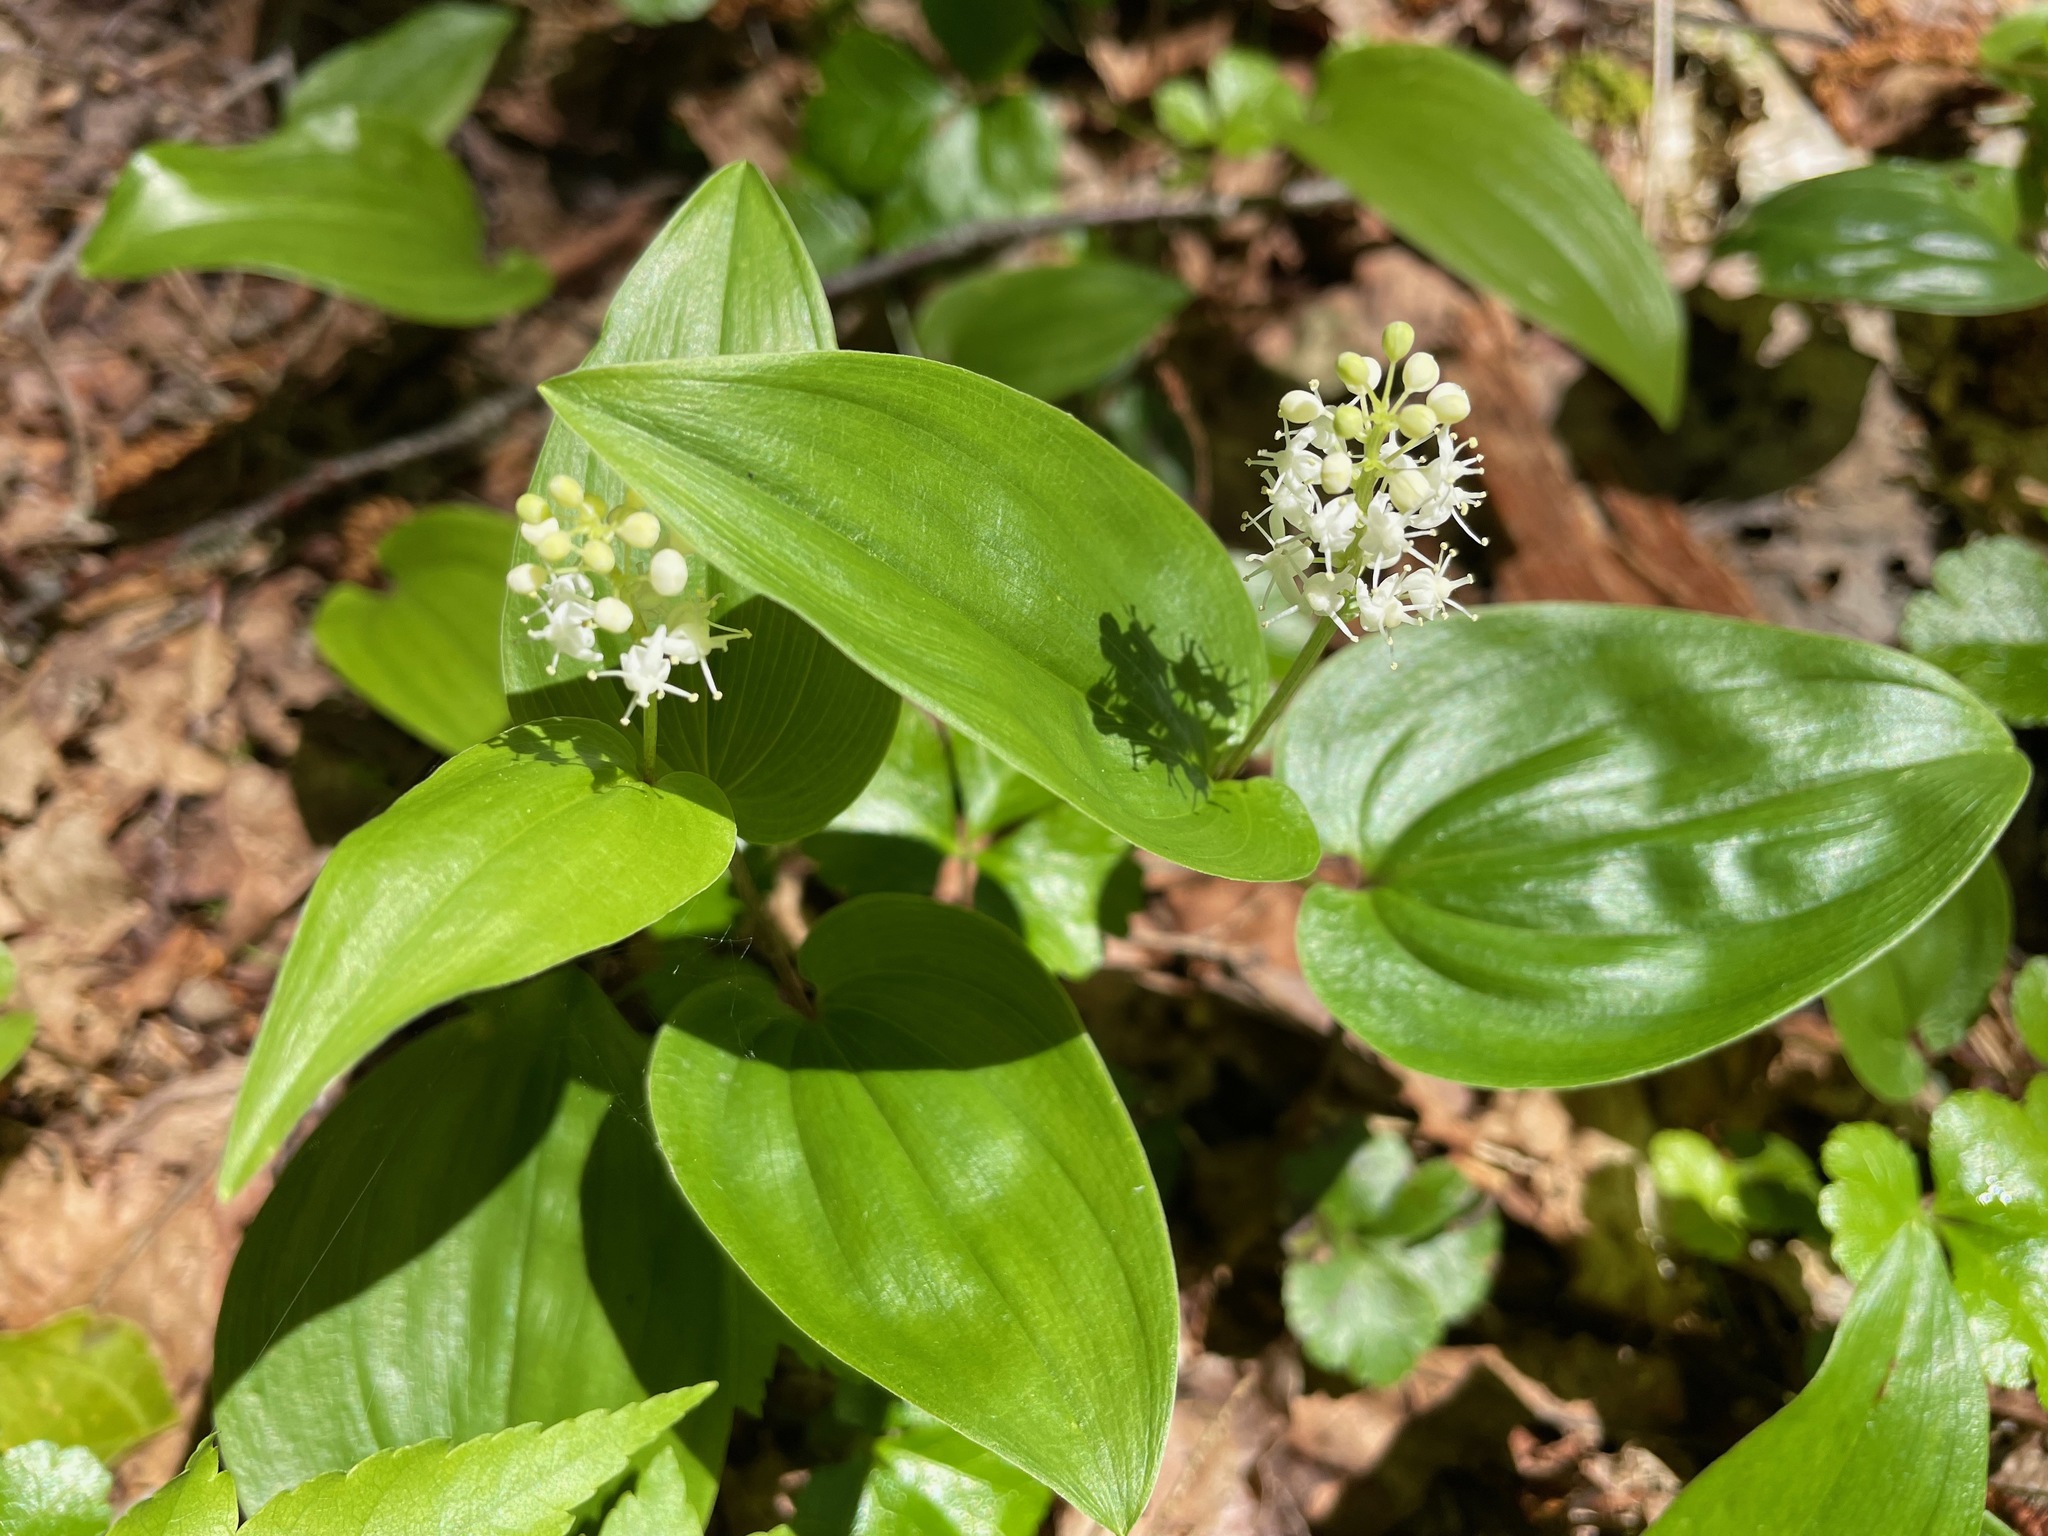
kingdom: Plantae
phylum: Tracheophyta
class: Liliopsida
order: Asparagales
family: Asparagaceae
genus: Maianthemum
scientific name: Maianthemum canadense
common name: False lily-of-the-valley
